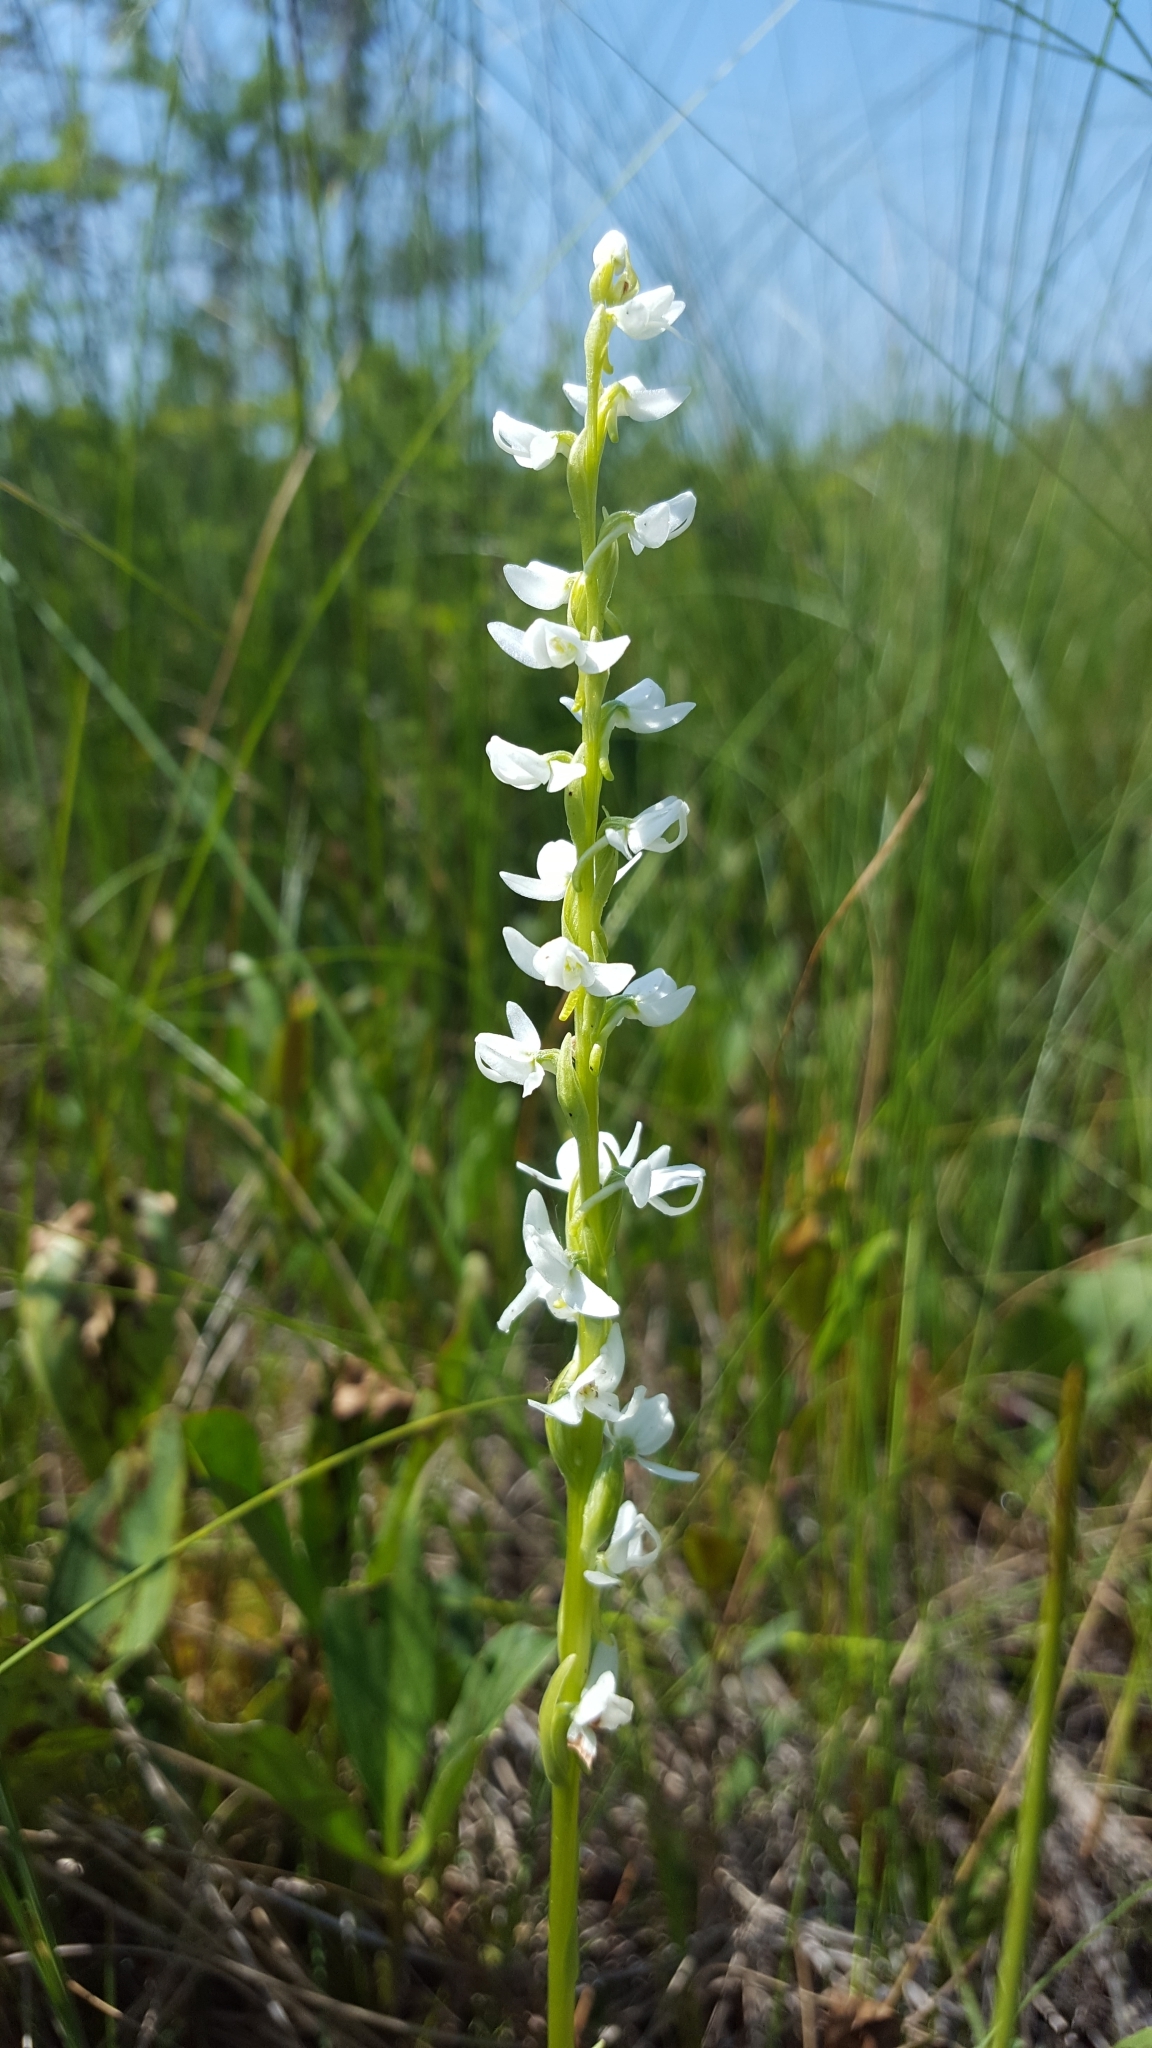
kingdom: Plantae
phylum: Tracheophyta
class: Liliopsida
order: Asparagales
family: Orchidaceae
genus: Platanthera
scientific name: Platanthera dilatata
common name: Bog candles
